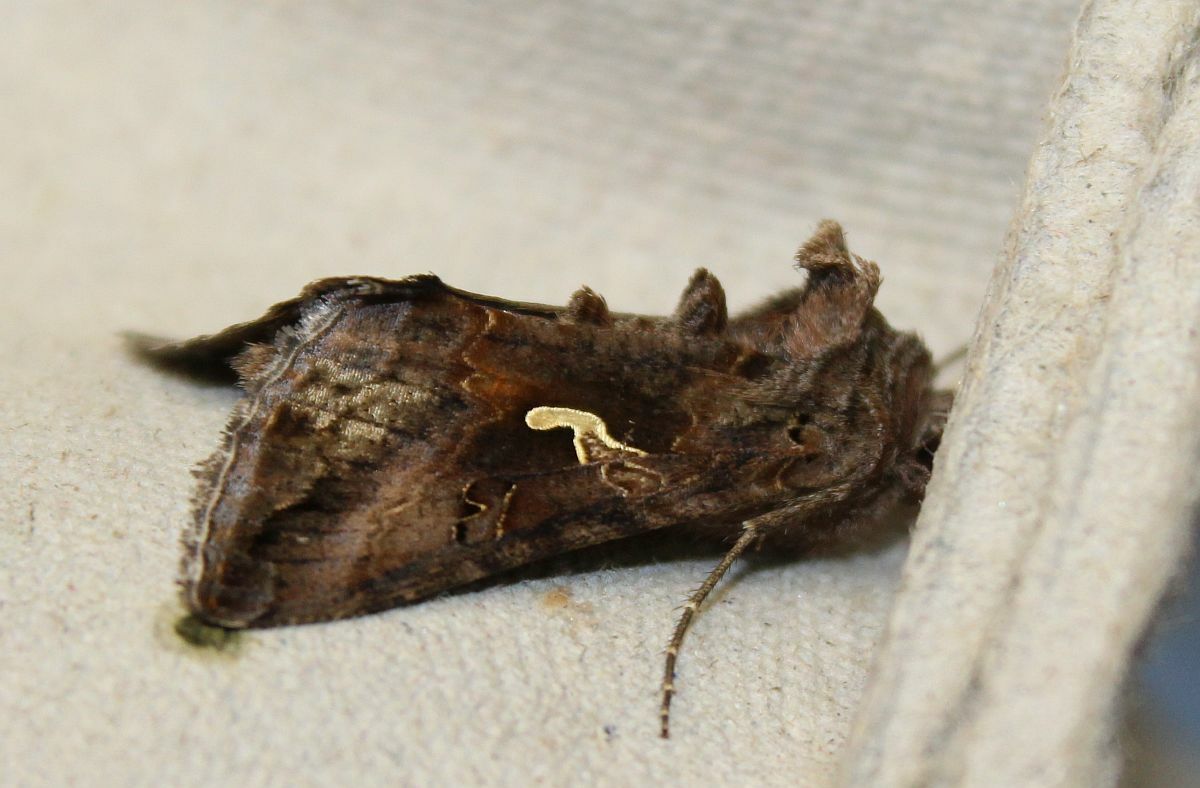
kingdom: Animalia
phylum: Arthropoda
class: Insecta
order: Lepidoptera
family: Noctuidae
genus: Autographa
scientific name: Autographa gamma
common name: Silver y
